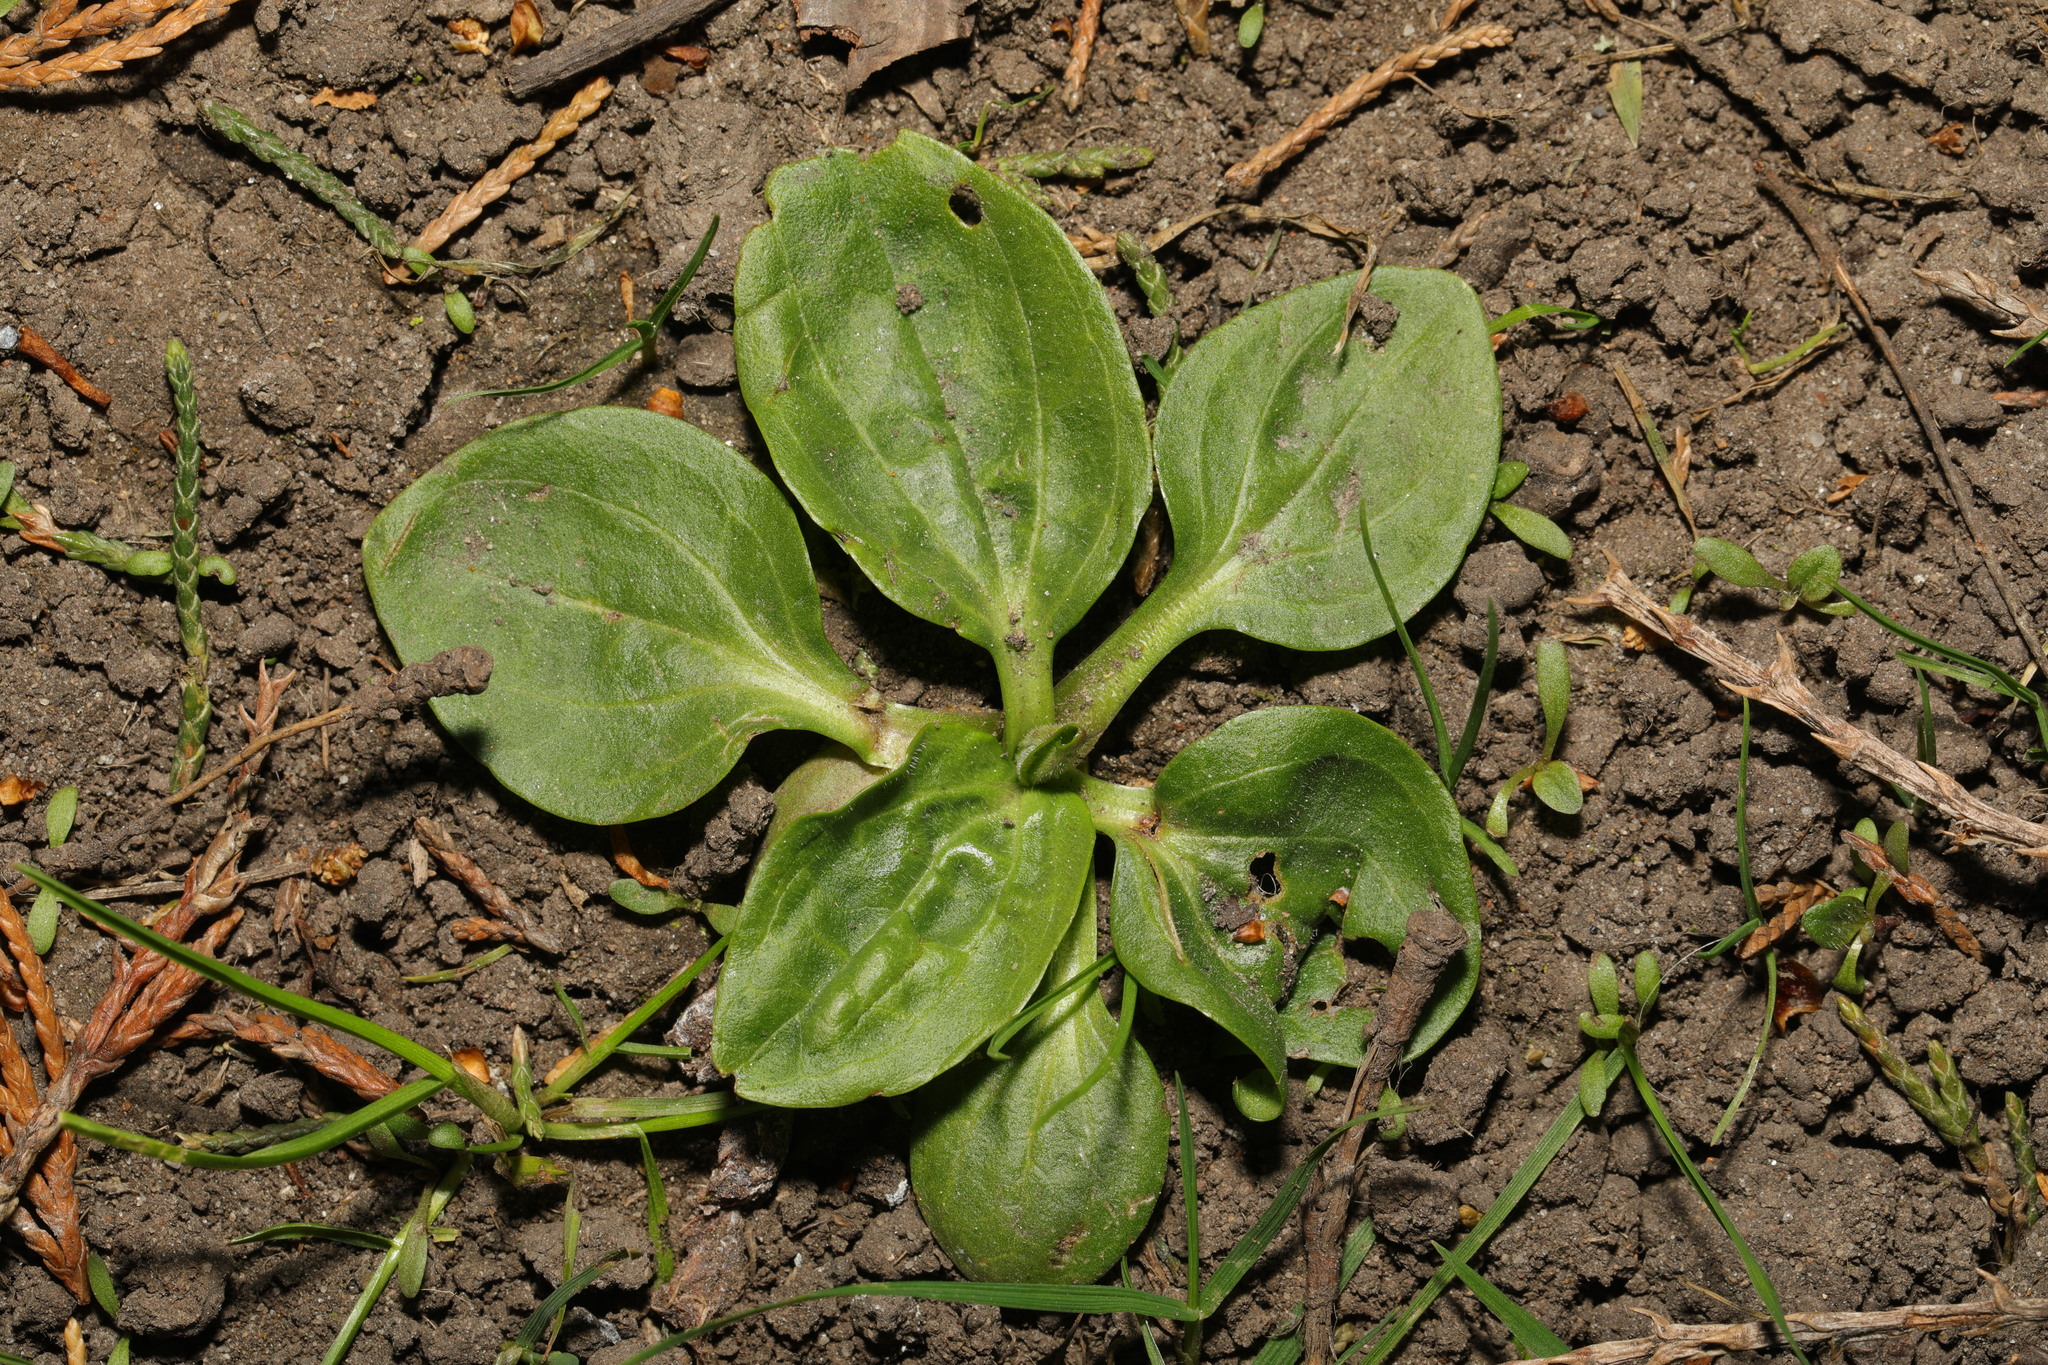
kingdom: Plantae
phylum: Tracheophyta
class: Magnoliopsida
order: Lamiales
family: Plantaginaceae
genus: Plantago
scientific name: Plantago major
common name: Common plantain
